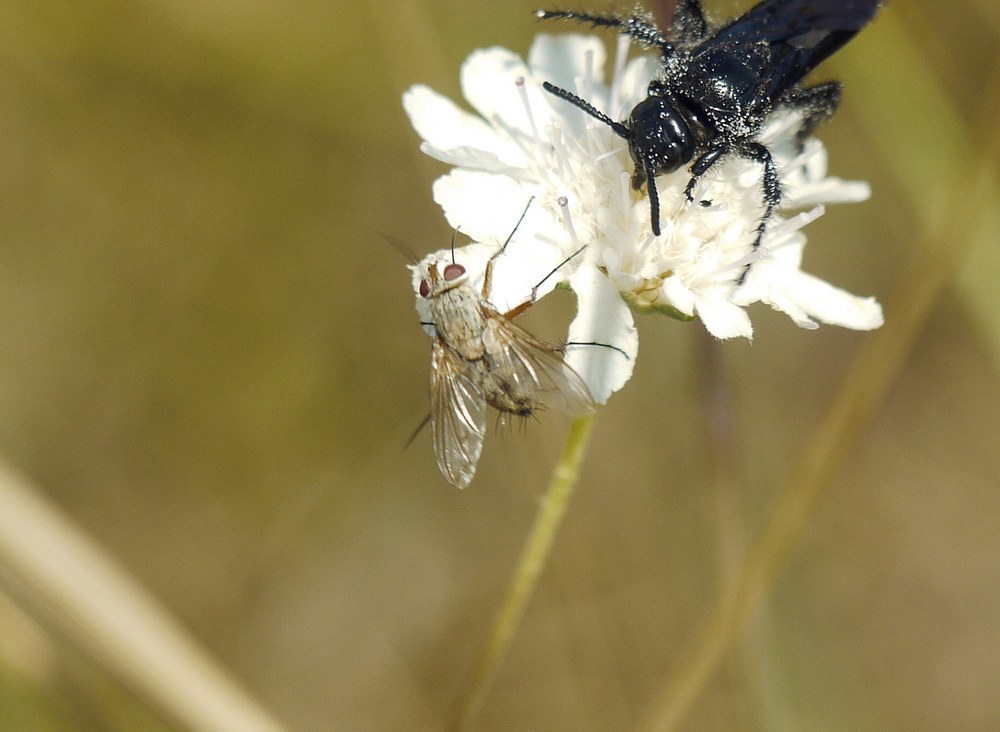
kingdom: Animalia
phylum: Arthropoda
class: Insecta
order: Diptera
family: Tachinidae
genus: Prosena
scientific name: Prosena siberita
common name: Parasitic fly
